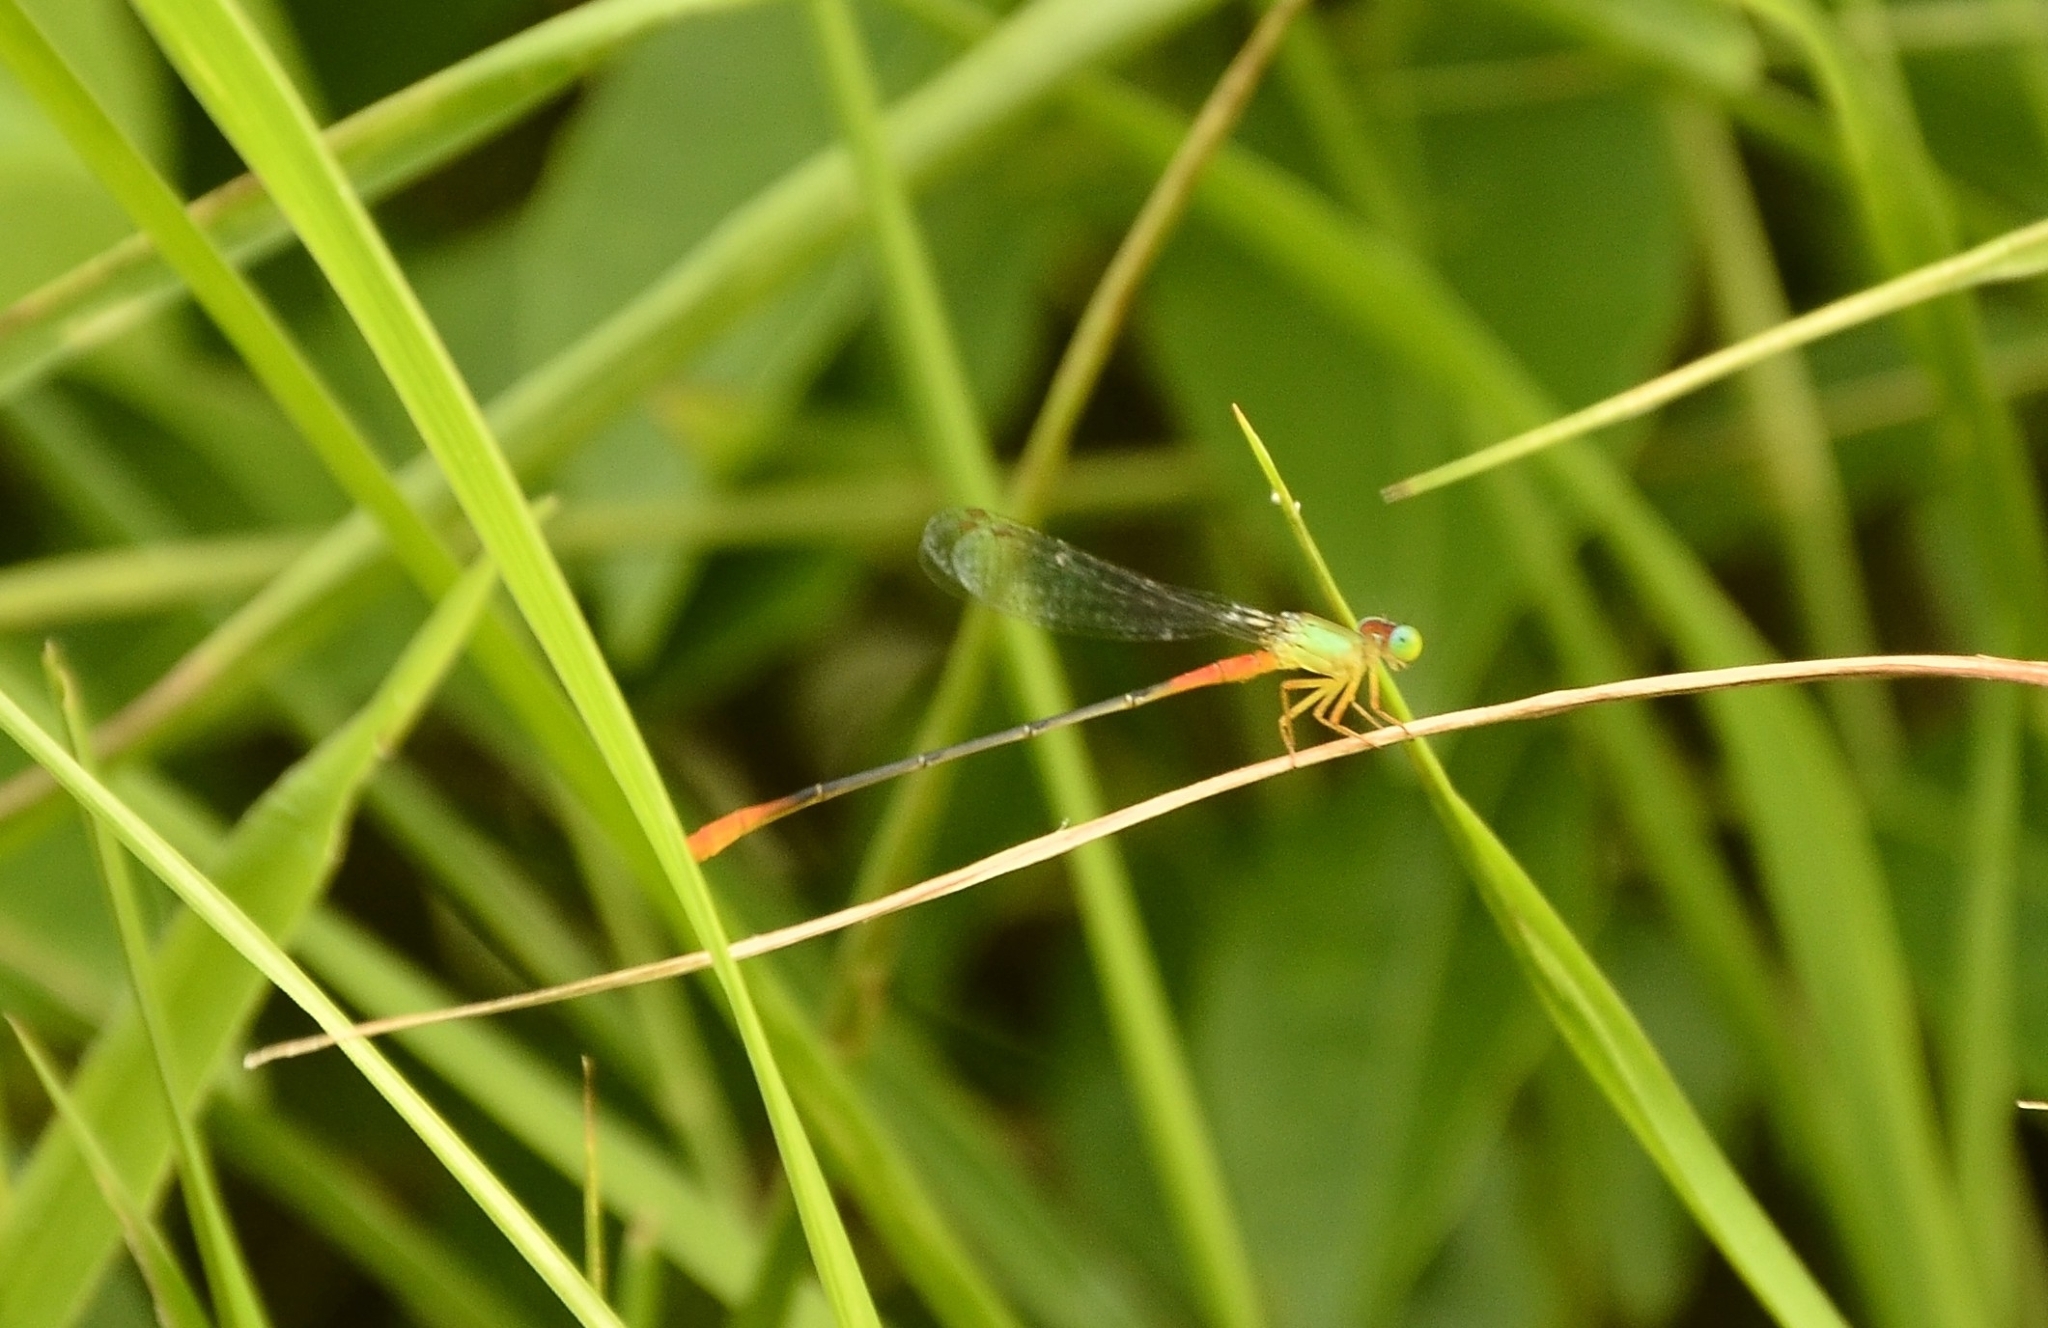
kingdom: Animalia
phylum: Arthropoda
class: Insecta
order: Odonata
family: Coenagrionidae
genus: Ceriagrion
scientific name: Ceriagrion cerinorubellum
